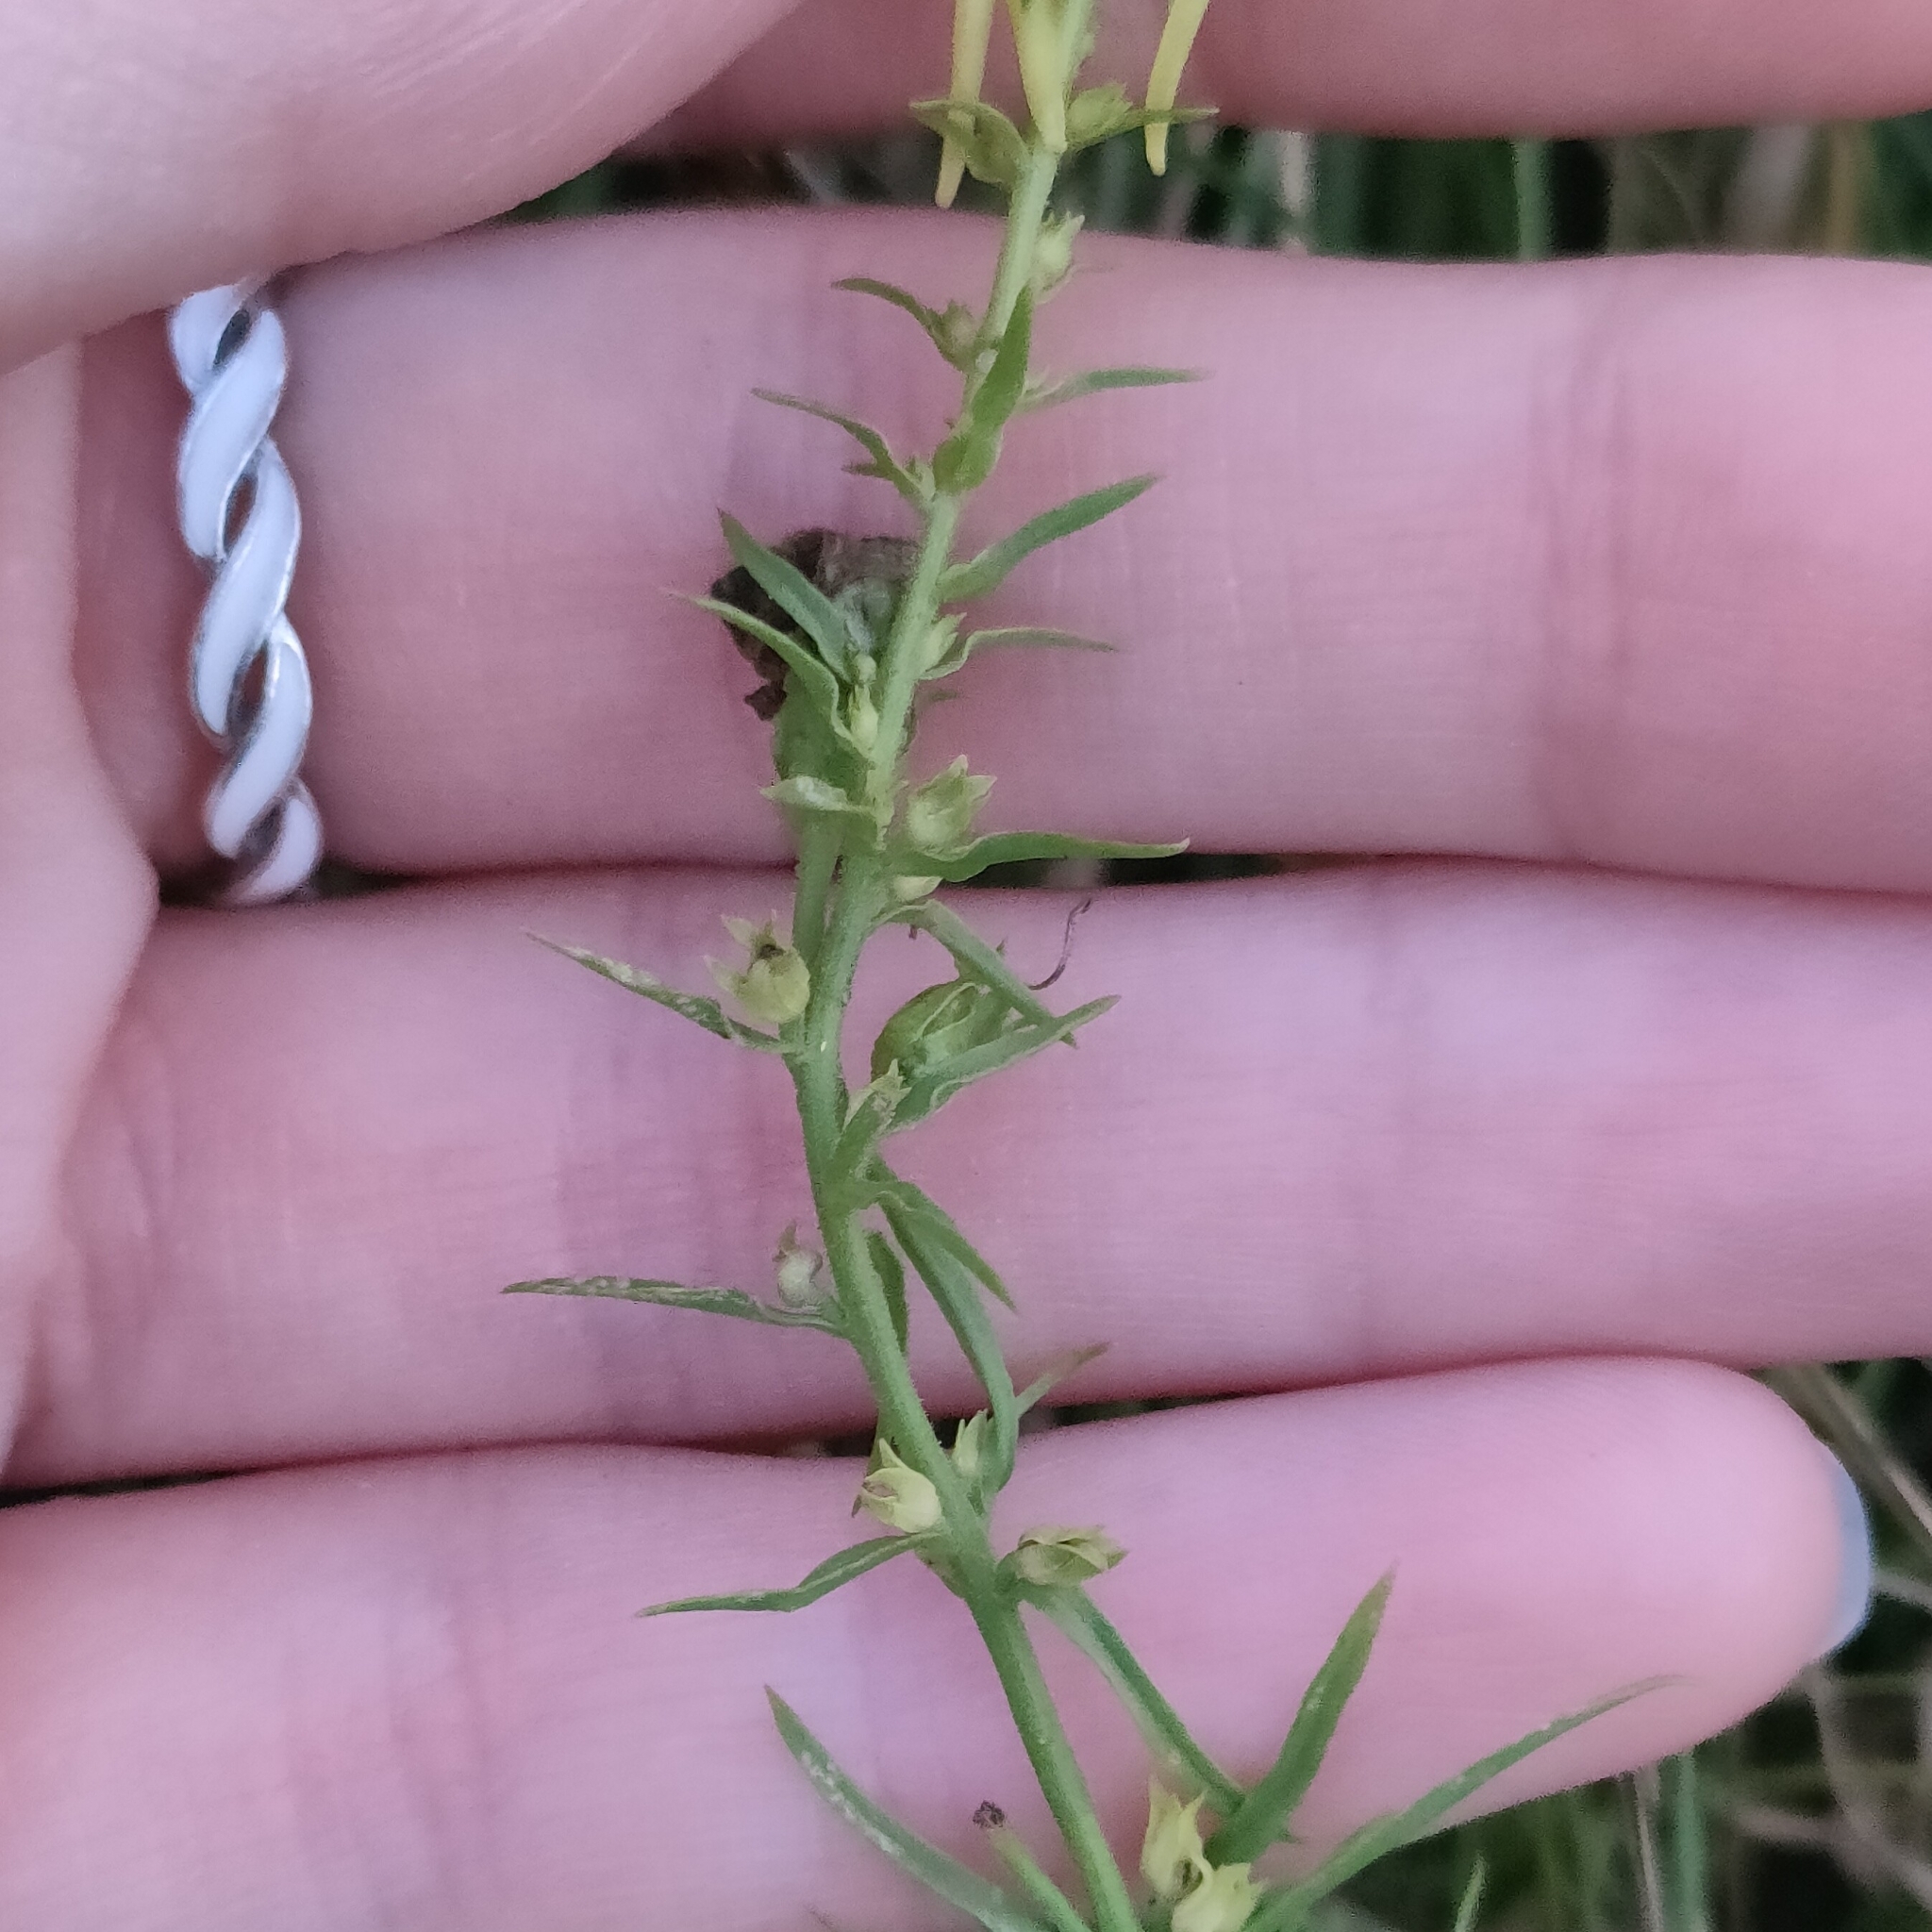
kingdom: Plantae
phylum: Tracheophyta
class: Magnoliopsida
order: Lamiales
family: Plantaginaceae
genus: Linaria
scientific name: Linaria vulgaris
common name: Butter and eggs
